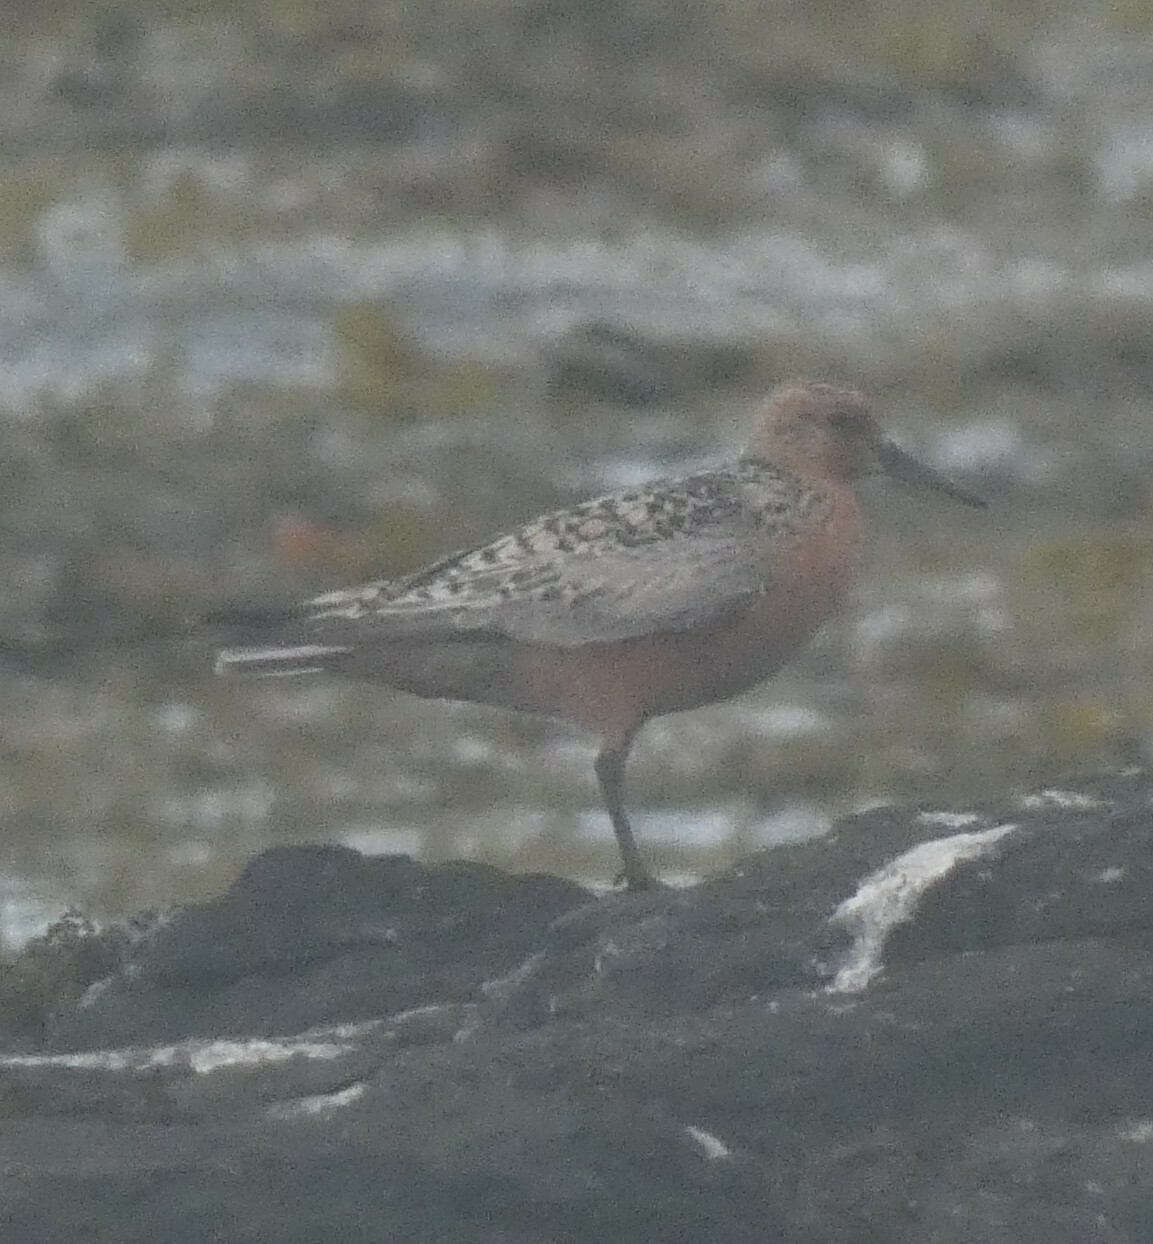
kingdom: Animalia
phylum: Chordata
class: Aves
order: Charadriiformes
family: Scolopacidae
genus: Calidris
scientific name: Calidris canutus
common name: Red knot
